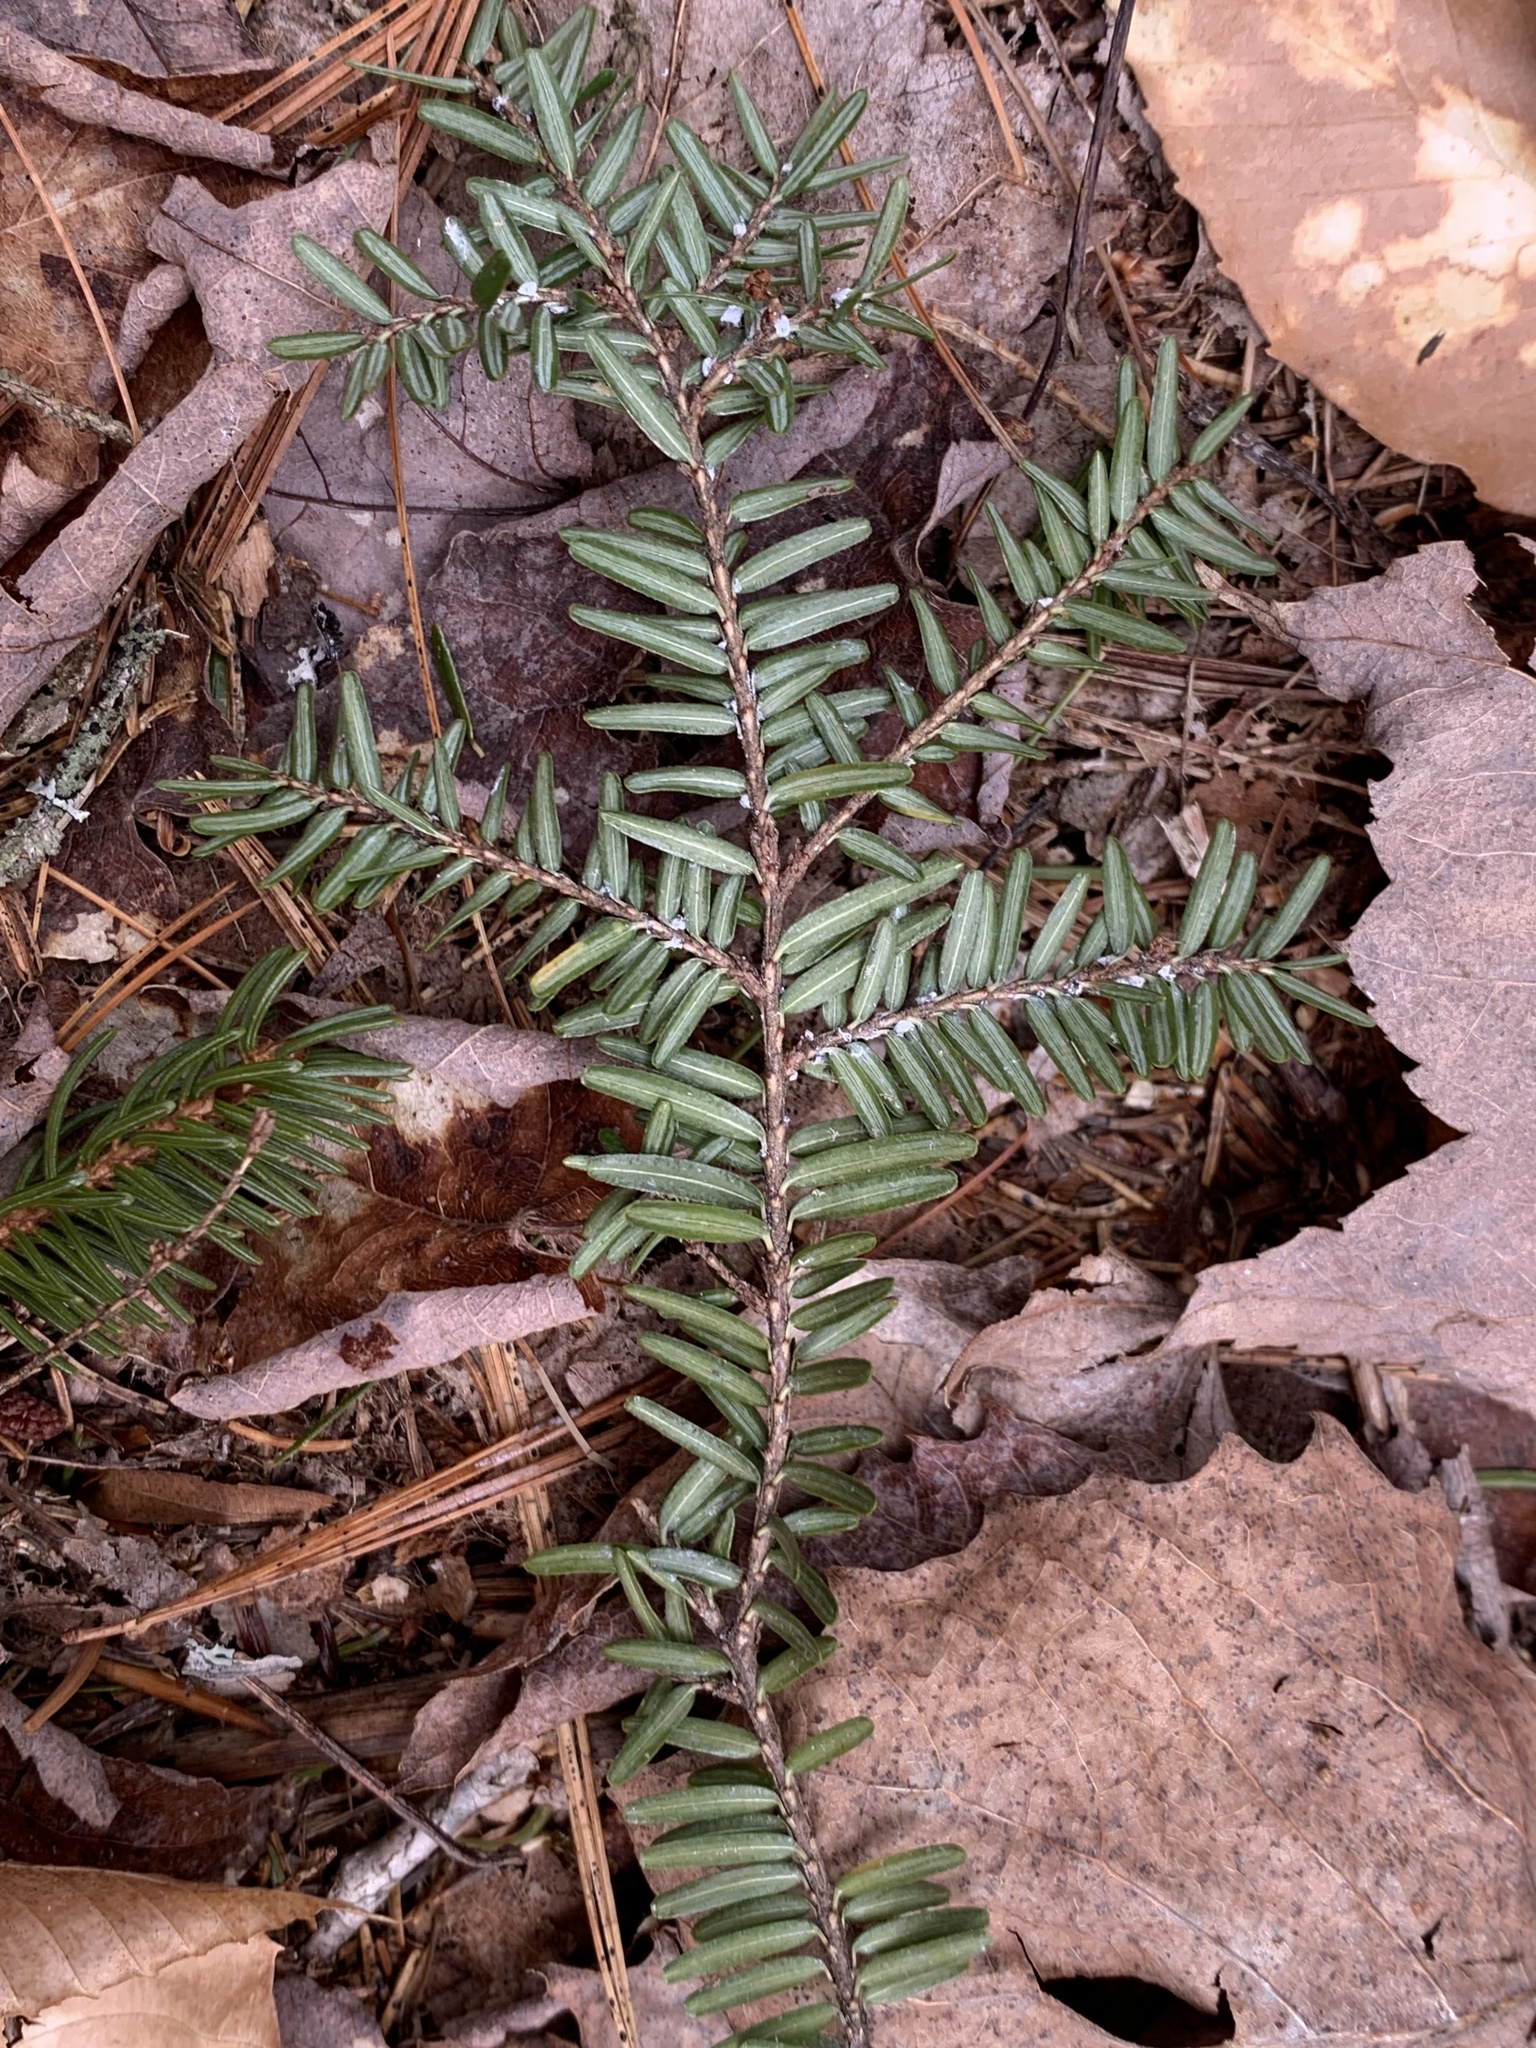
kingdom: Animalia
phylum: Arthropoda
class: Insecta
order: Hemiptera
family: Adelgidae
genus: Adelges
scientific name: Adelges tsugae
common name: Hemlock woolly adelgid
